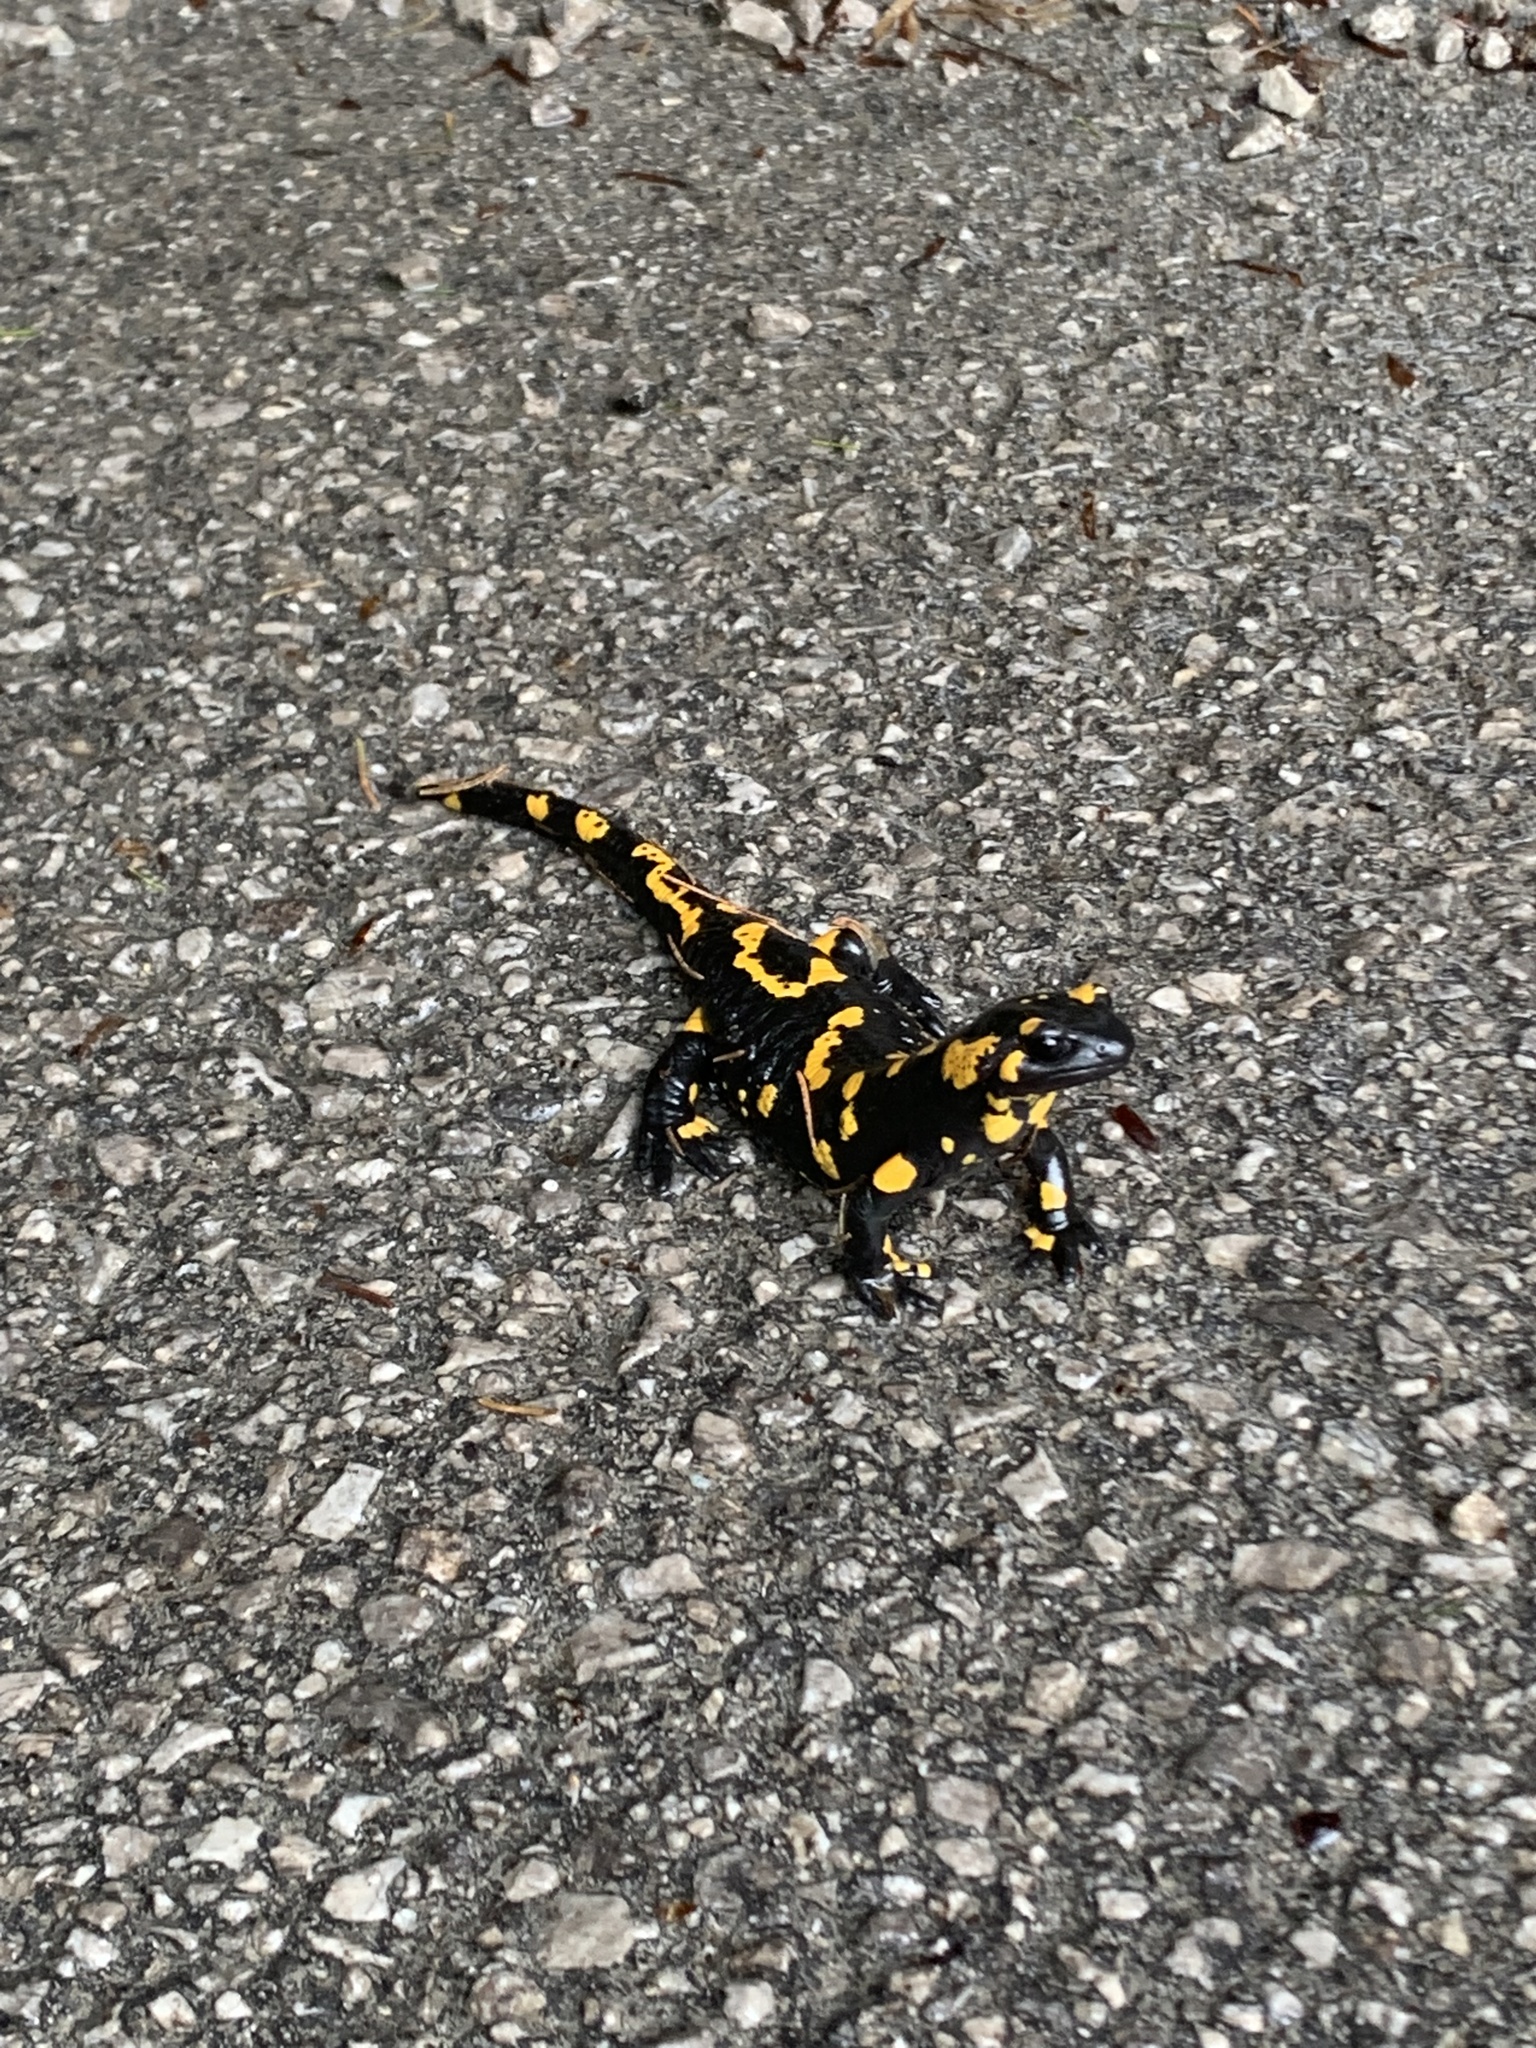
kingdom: Animalia
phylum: Chordata
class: Amphibia
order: Caudata
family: Salamandridae
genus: Salamandra
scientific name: Salamandra salamandra
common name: Fire salamander
